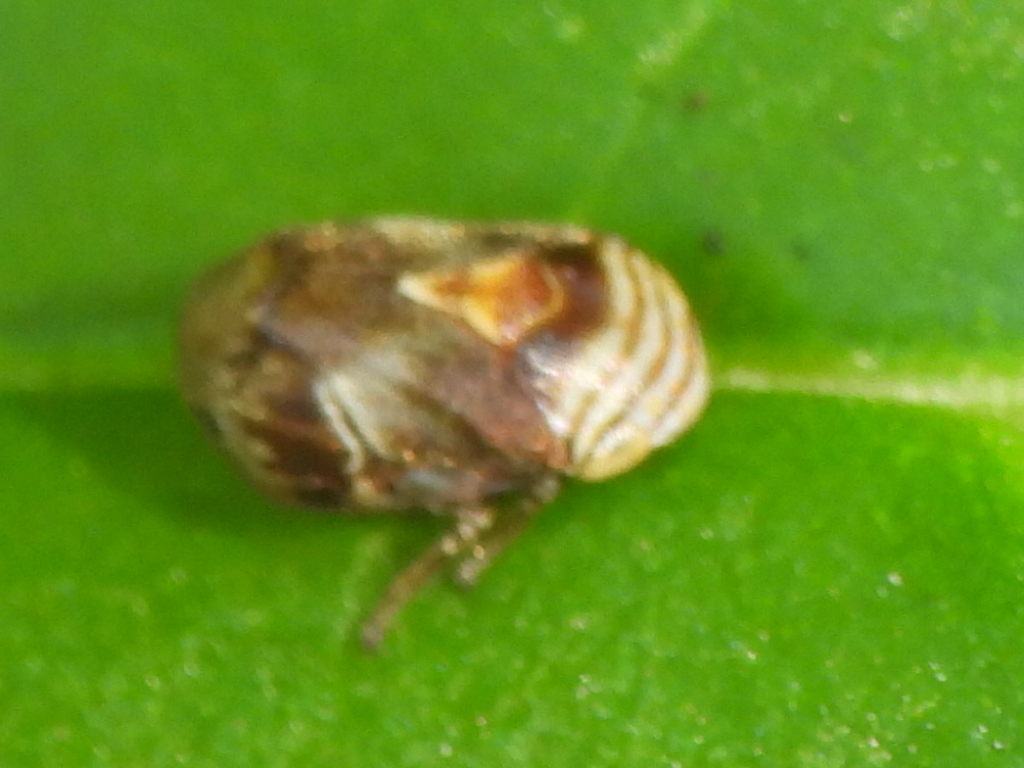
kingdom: Animalia
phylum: Arthropoda
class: Insecta
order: Hemiptera
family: Clastopteridae
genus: Clastoptera
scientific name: Clastoptera obtusa
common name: Alder spittlebug
